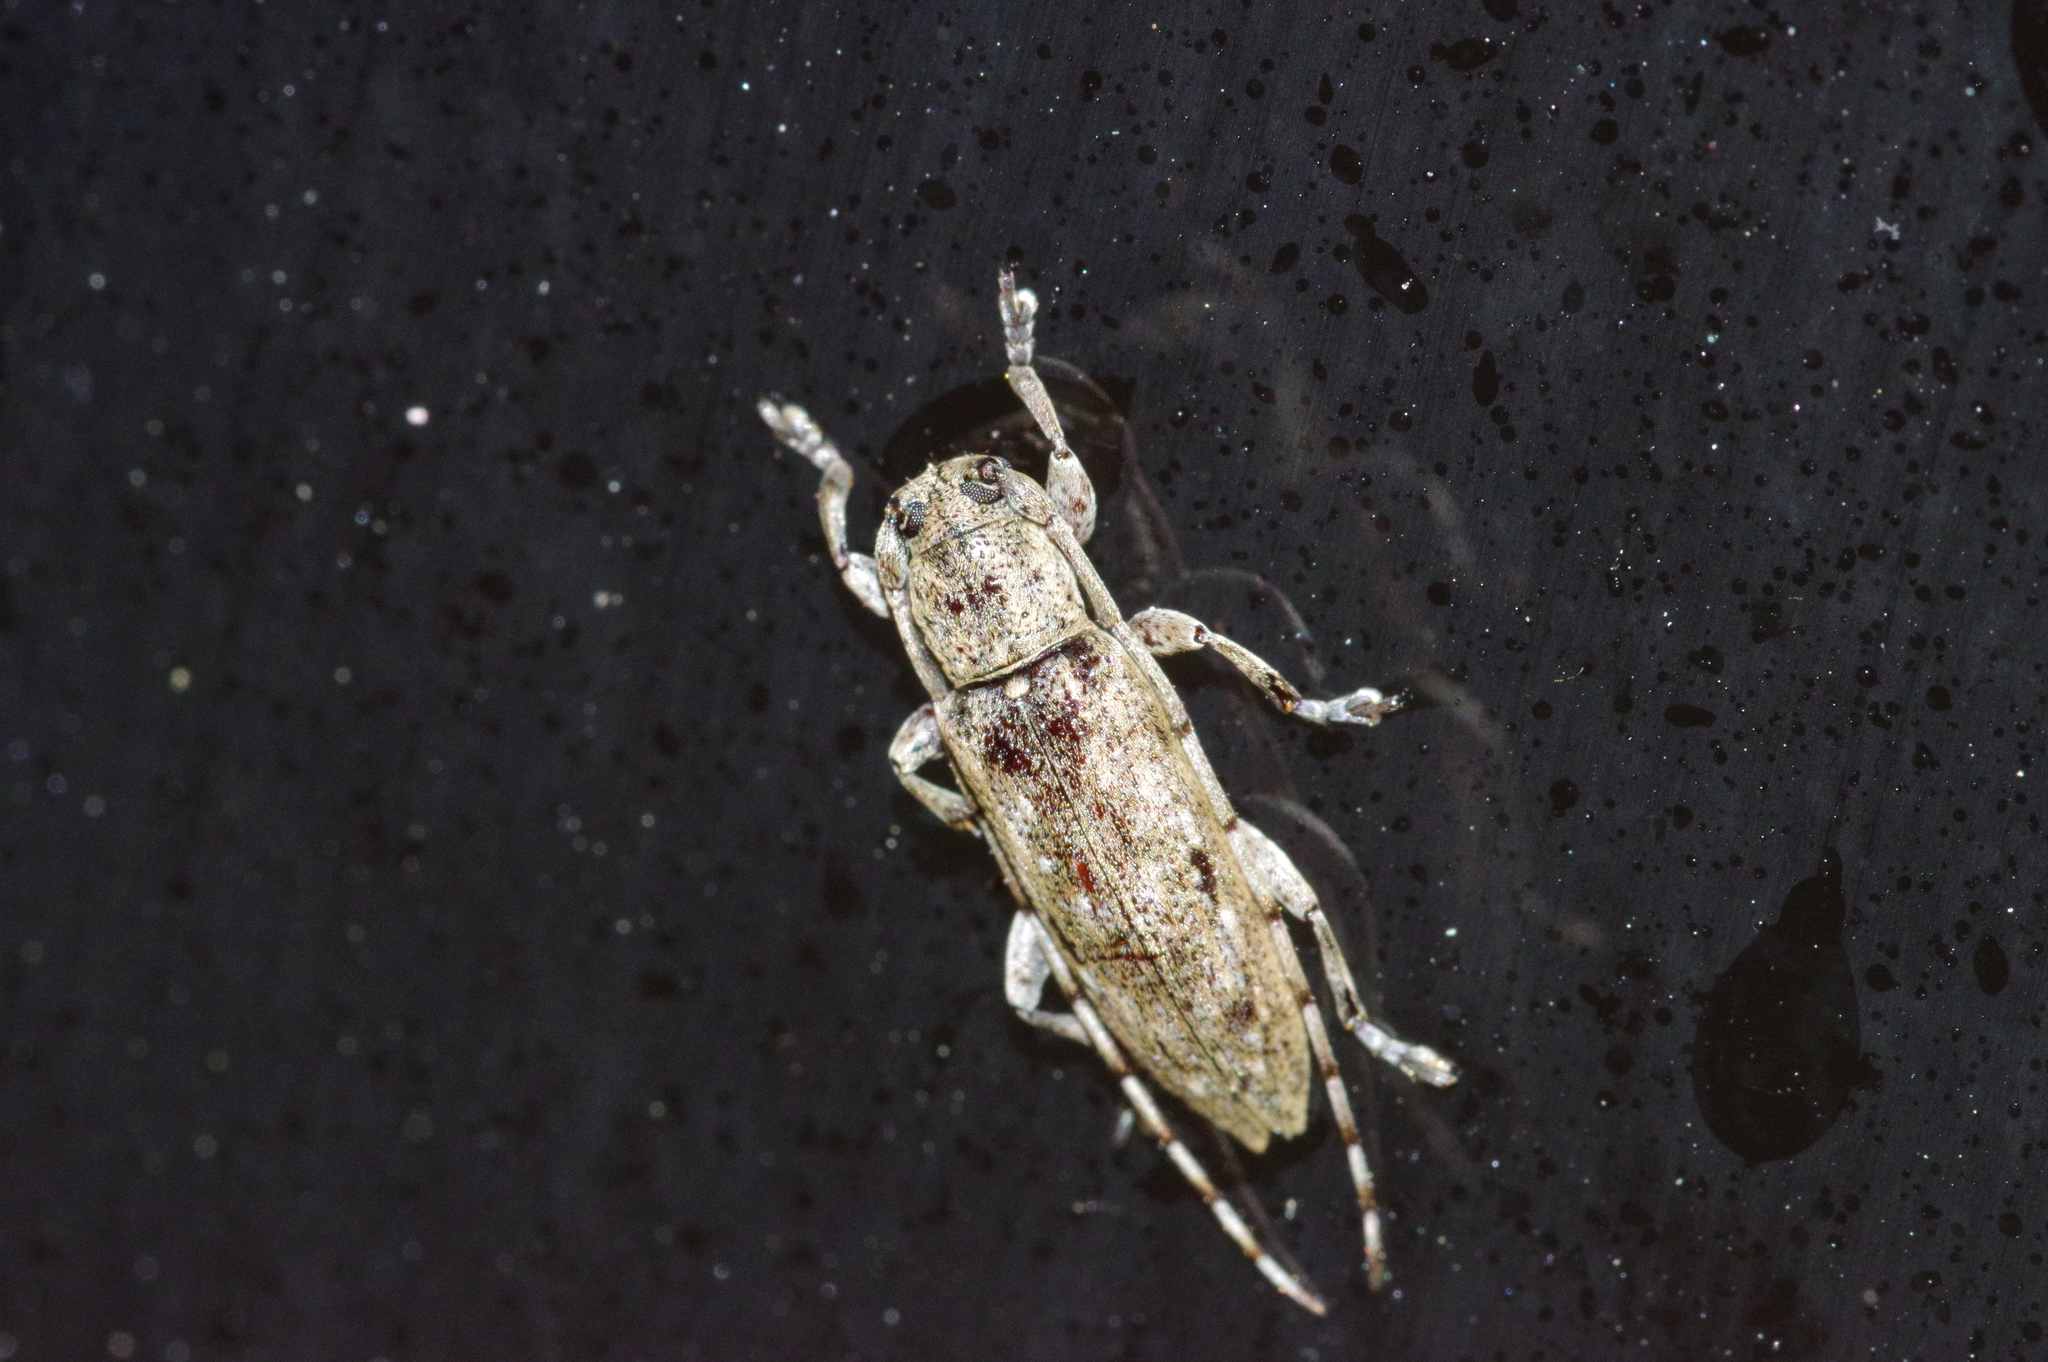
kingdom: Animalia
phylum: Arthropoda
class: Insecta
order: Coleoptera
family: Cerambycidae
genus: Mycerinopsis
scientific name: Mycerinopsis ordinata
